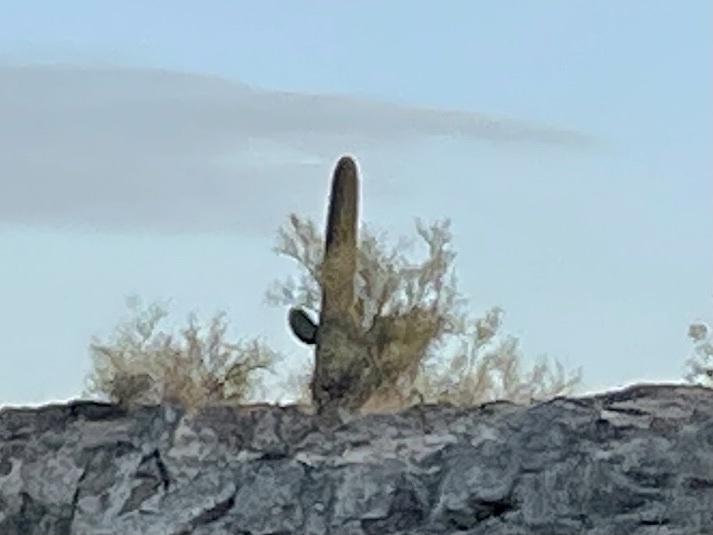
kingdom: Plantae
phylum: Tracheophyta
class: Magnoliopsida
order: Caryophyllales
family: Cactaceae
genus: Carnegiea
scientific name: Carnegiea gigantea
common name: Saguaro
